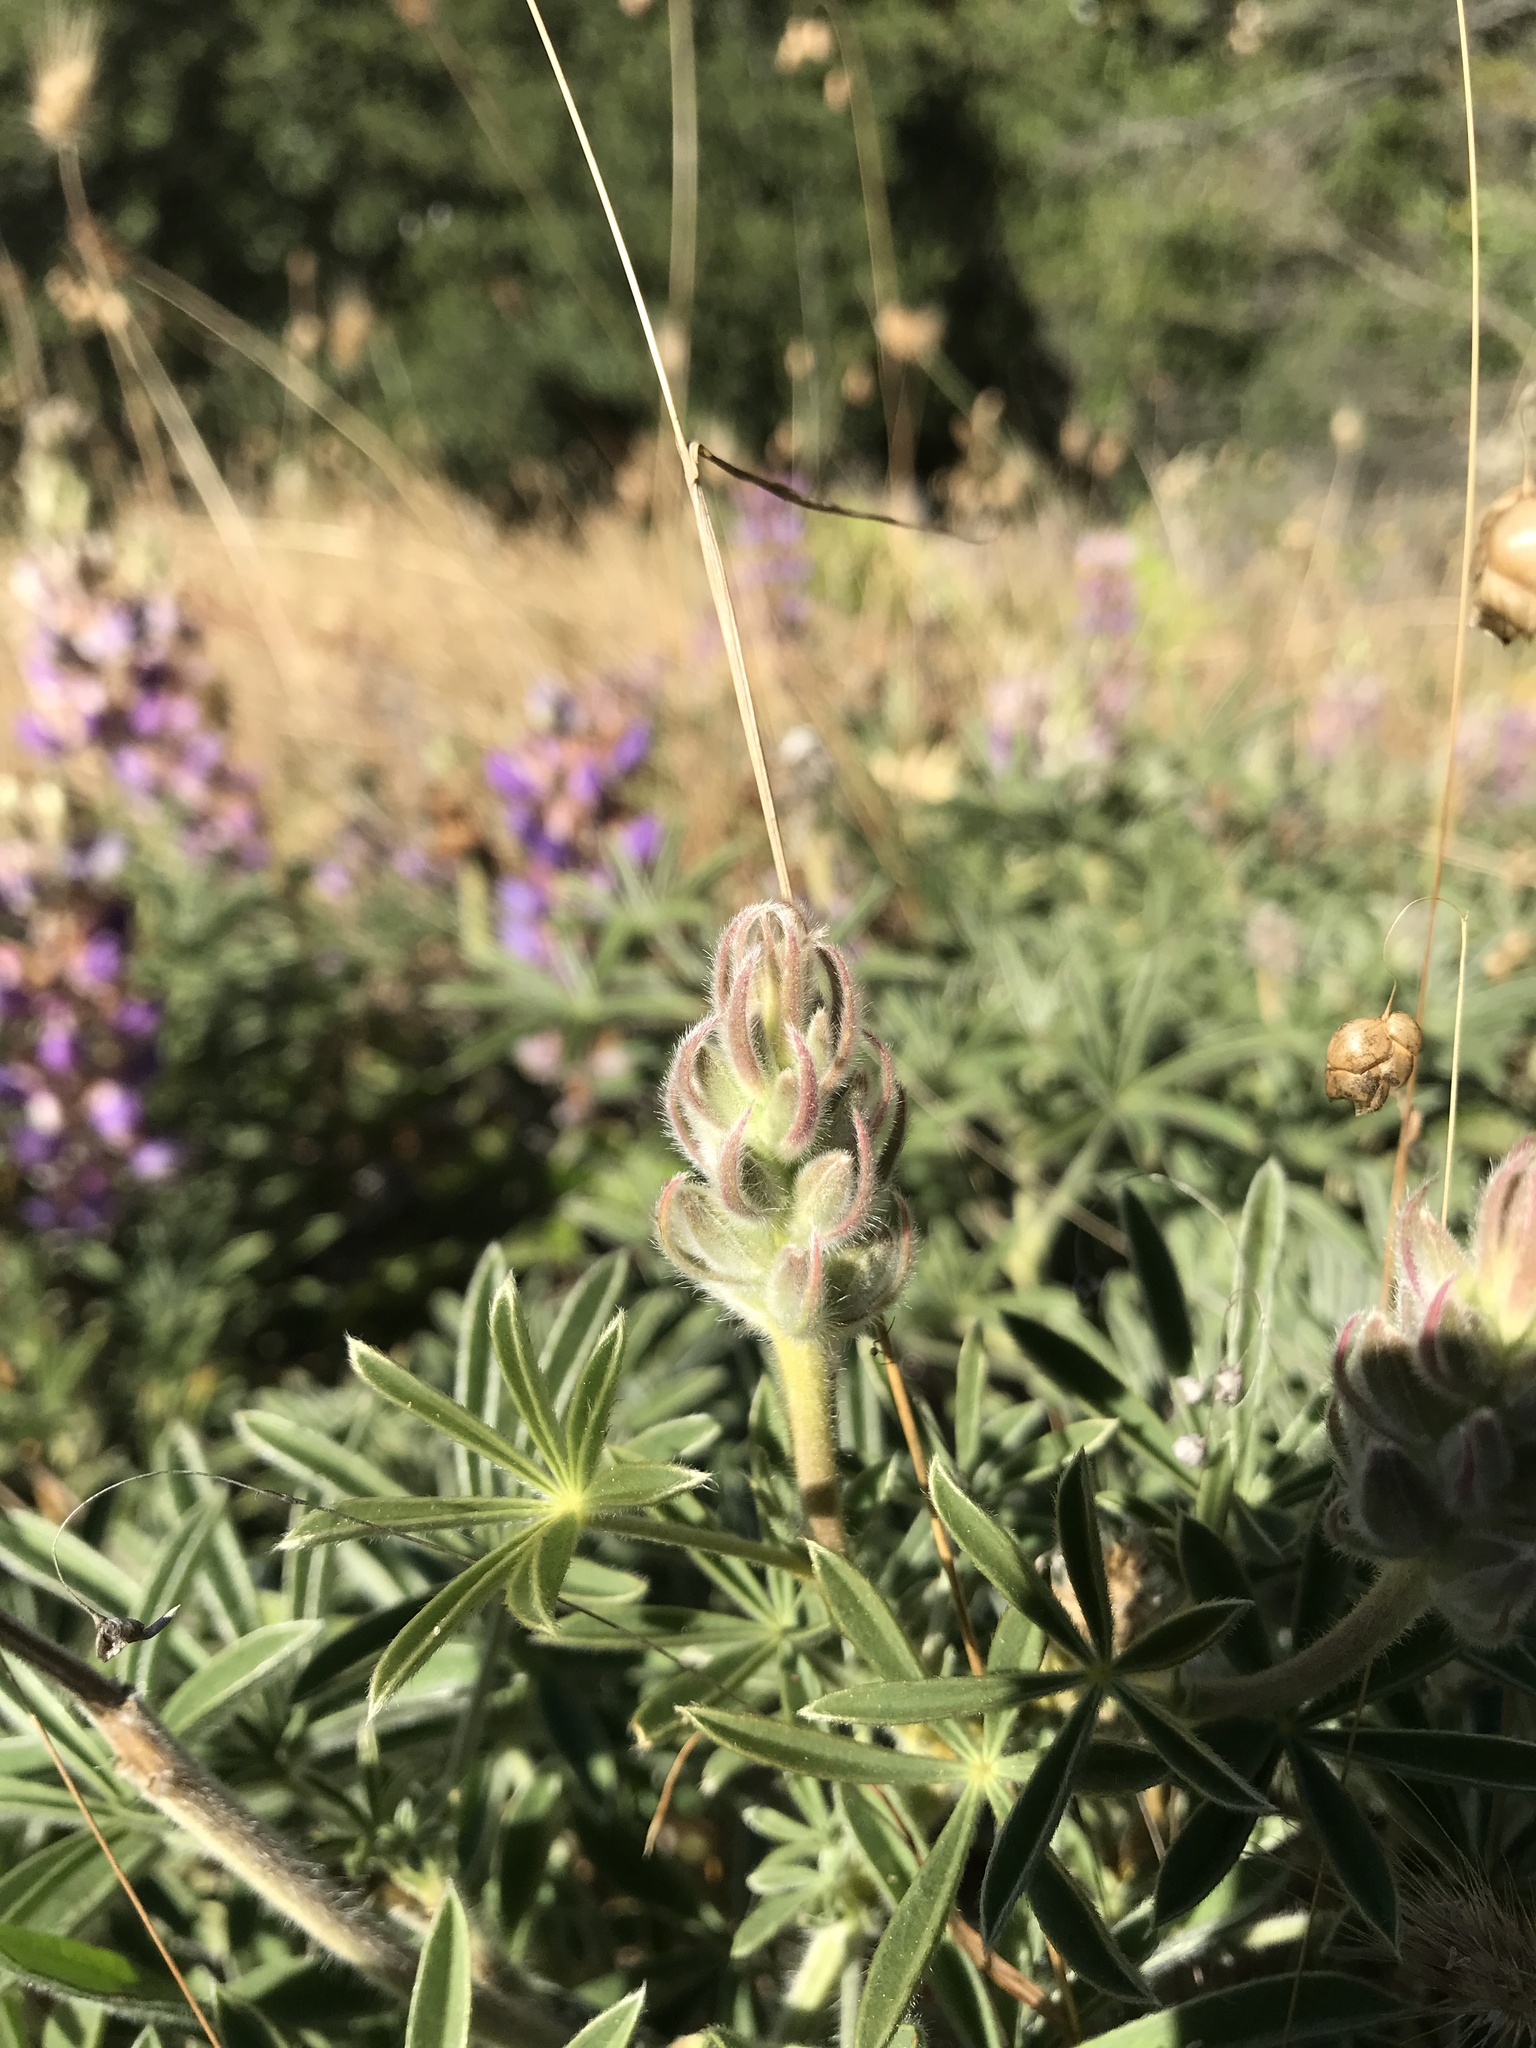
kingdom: Plantae
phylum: Tracheophyta
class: Magnoliopsida
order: Fabales
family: Fabaceae
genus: Lupinus
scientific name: Lupinus formosus
